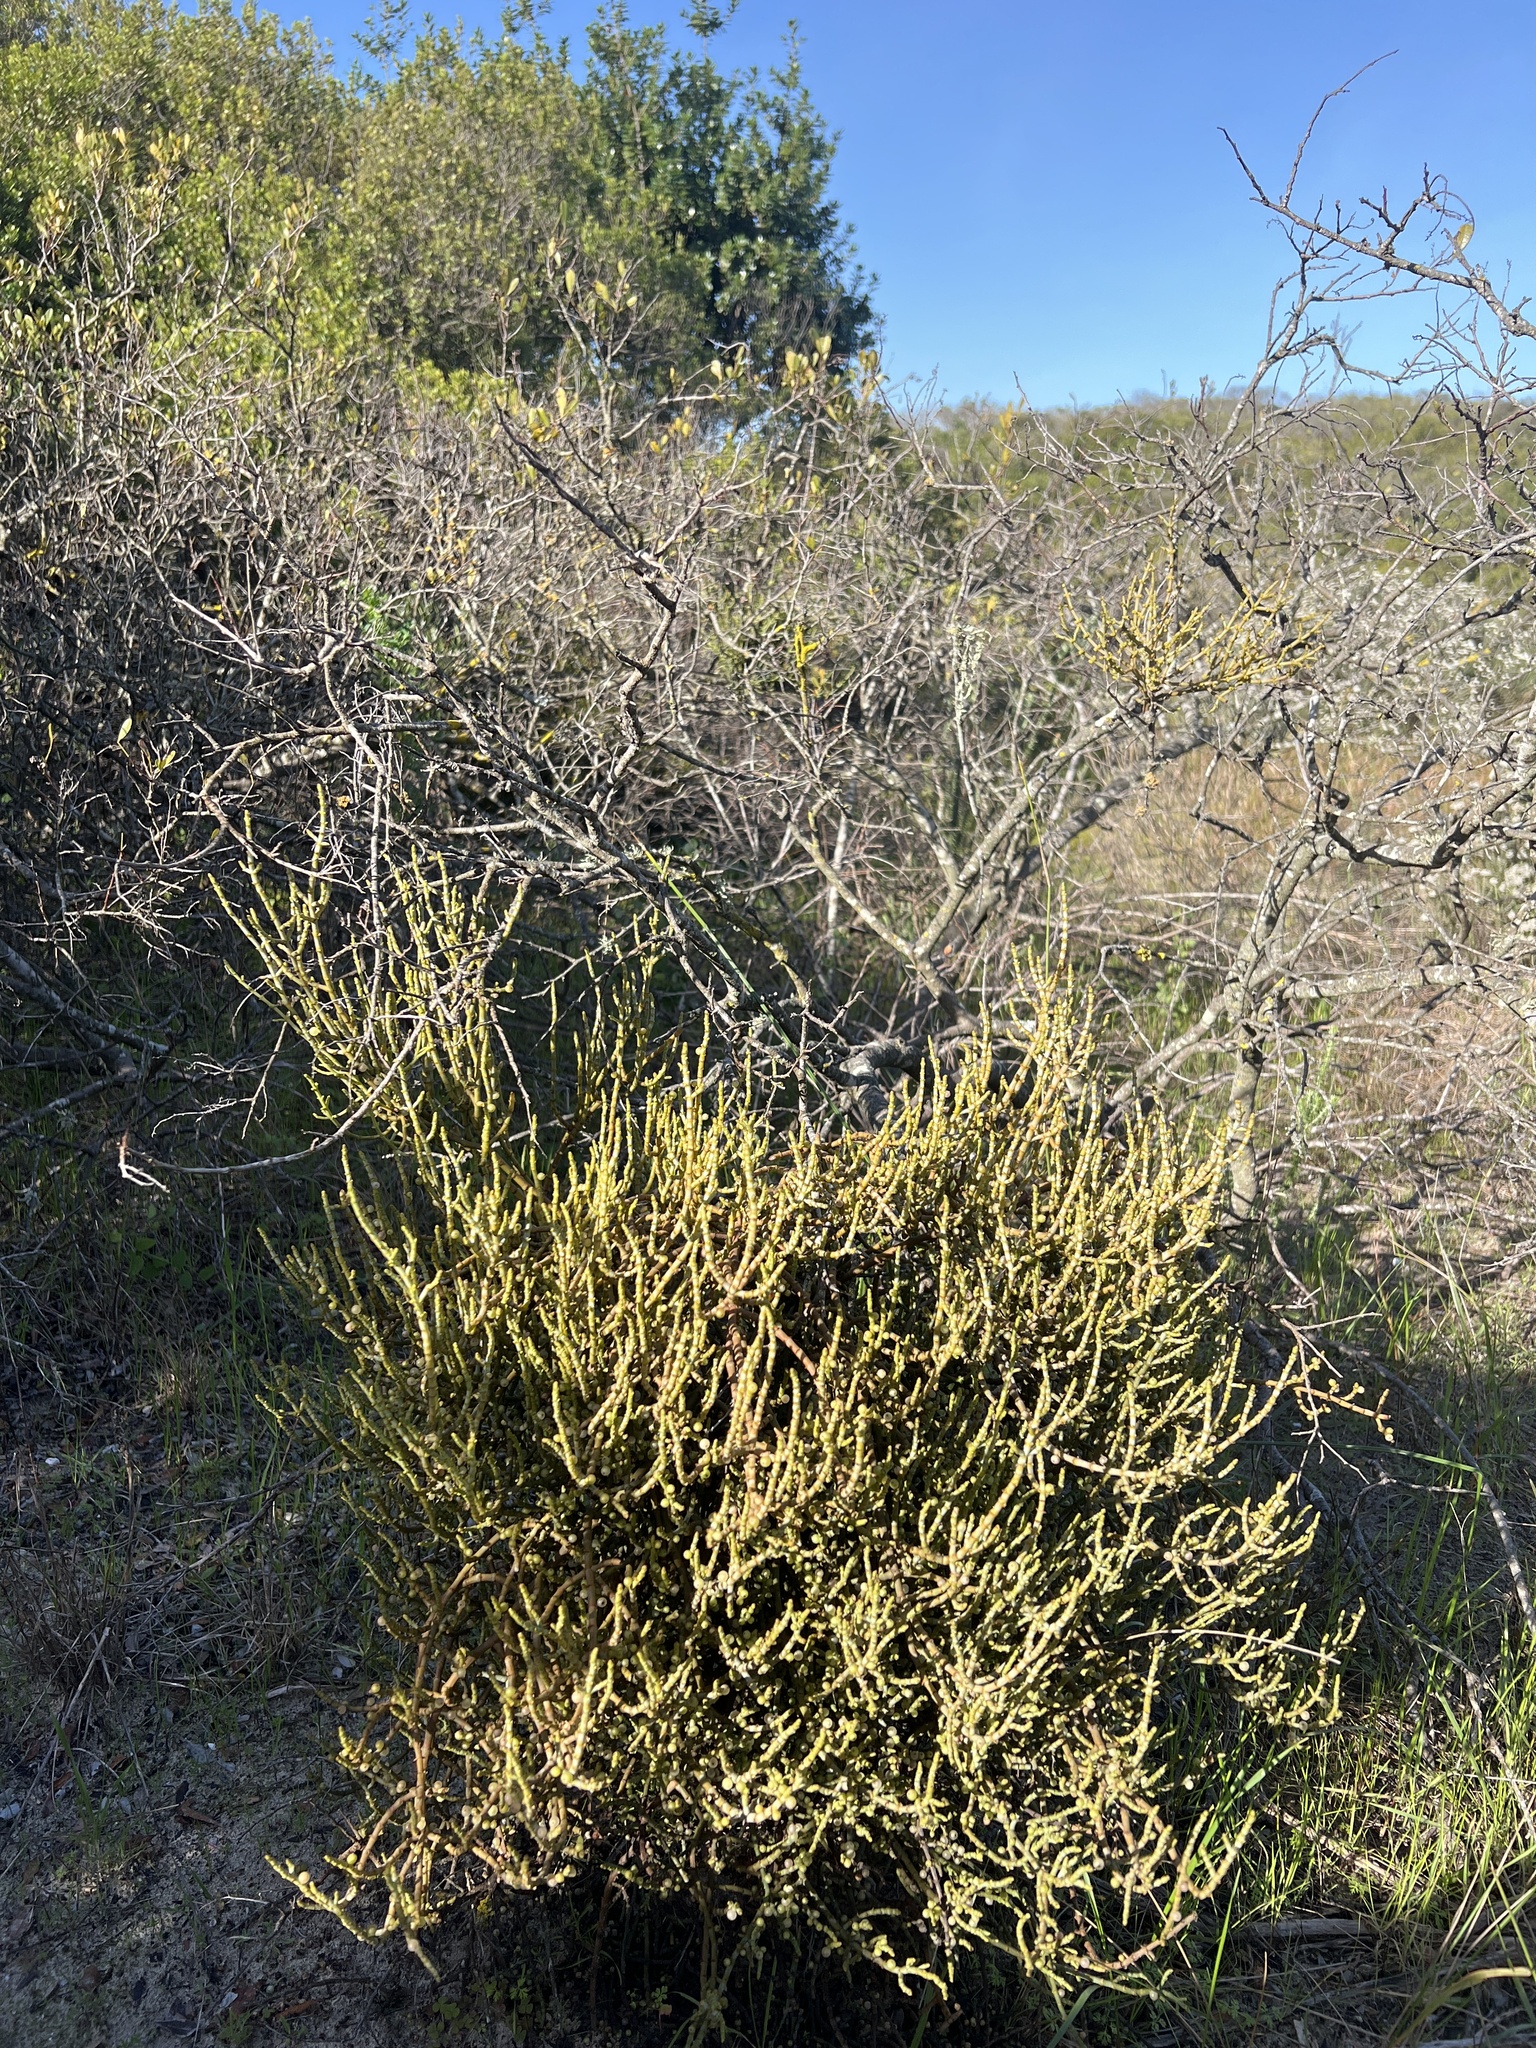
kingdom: Plantae
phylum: Tracheophyta
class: Magnoliopsida
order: Santalales
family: Viscaceae
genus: Viscum
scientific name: Viscum capense
